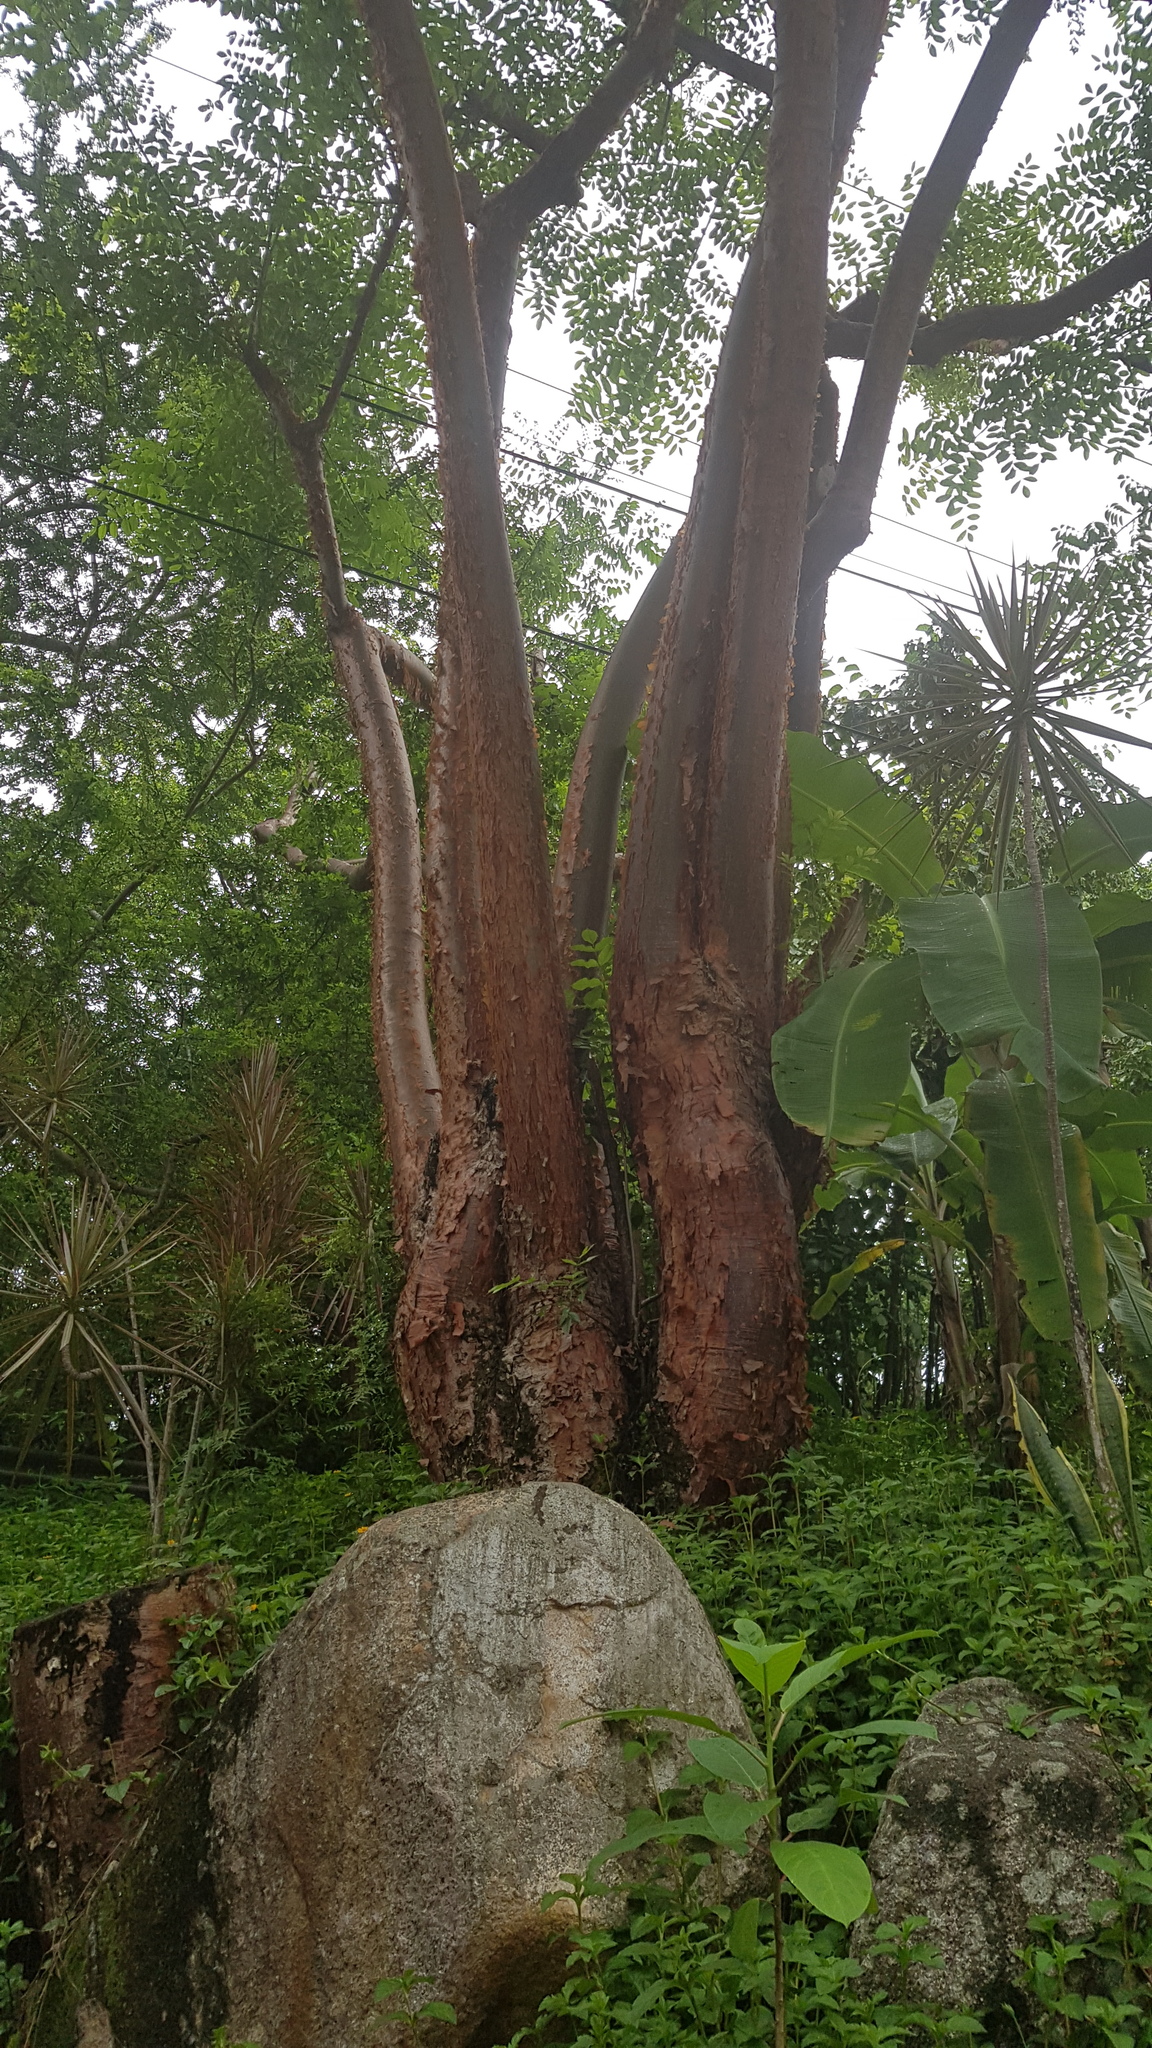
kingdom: Plantae
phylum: Tracheophyta
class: Magnoliopsida
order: Sapindales
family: Burseraceae
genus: Bursera
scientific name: Bursera simaruba
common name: Turpentine tree
